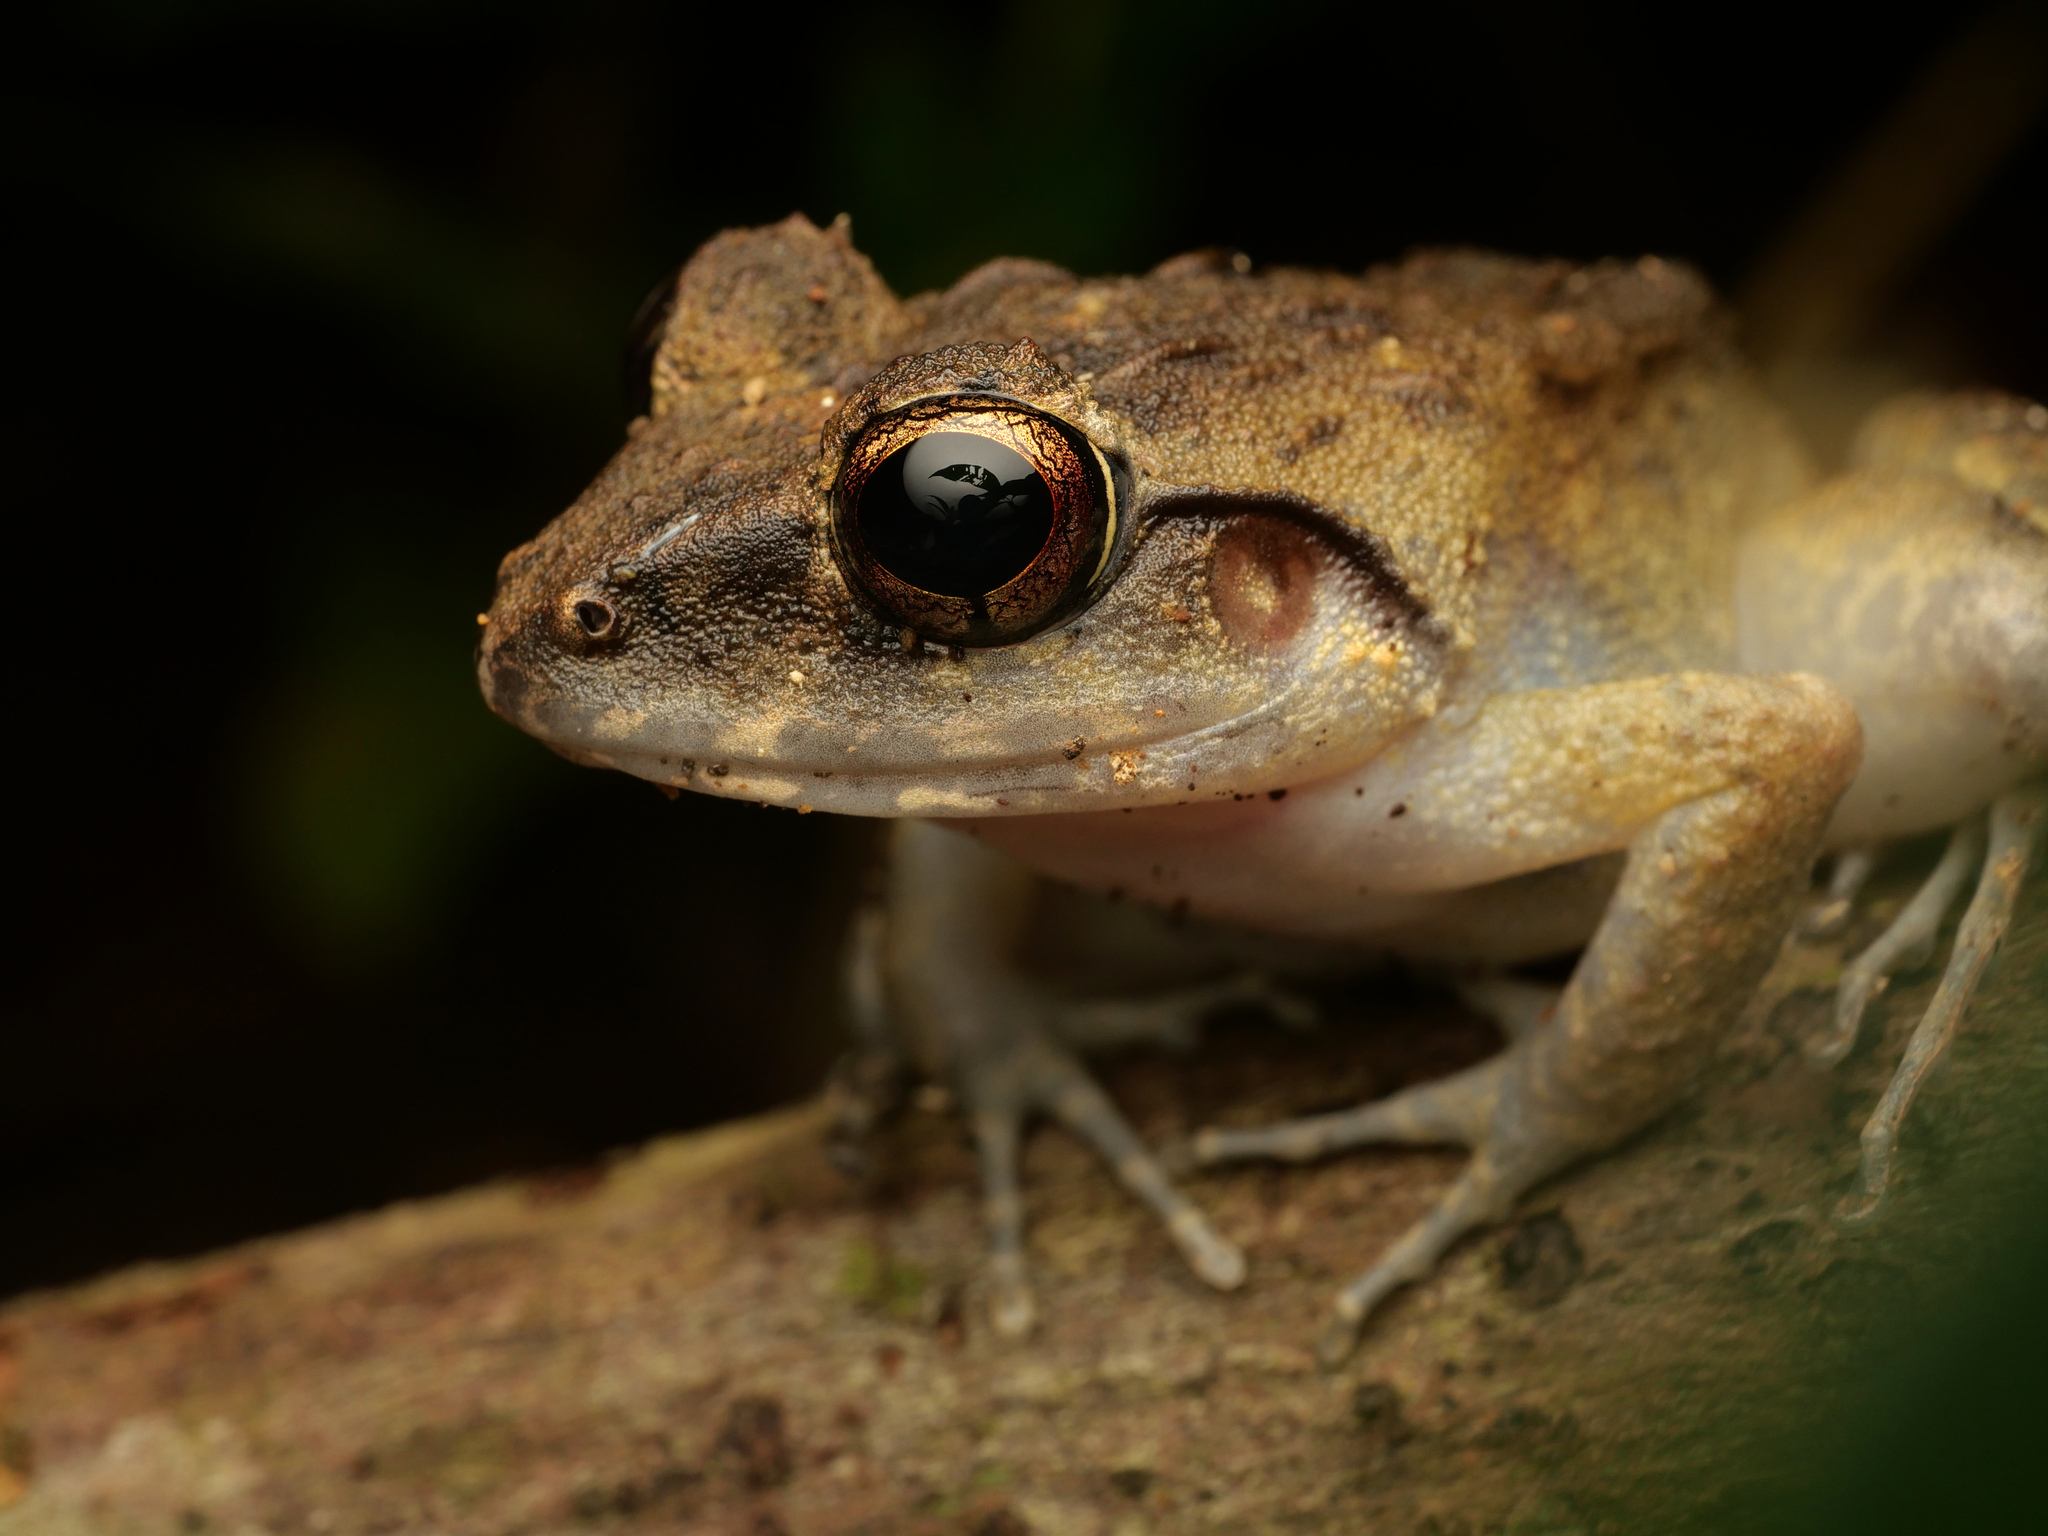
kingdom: Animalia
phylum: Chordata
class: Amphibia
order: Anura
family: Ceratobatrachidae
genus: Cornufer
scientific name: Cornufer papuensis
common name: Papua wrinkled ground frog
